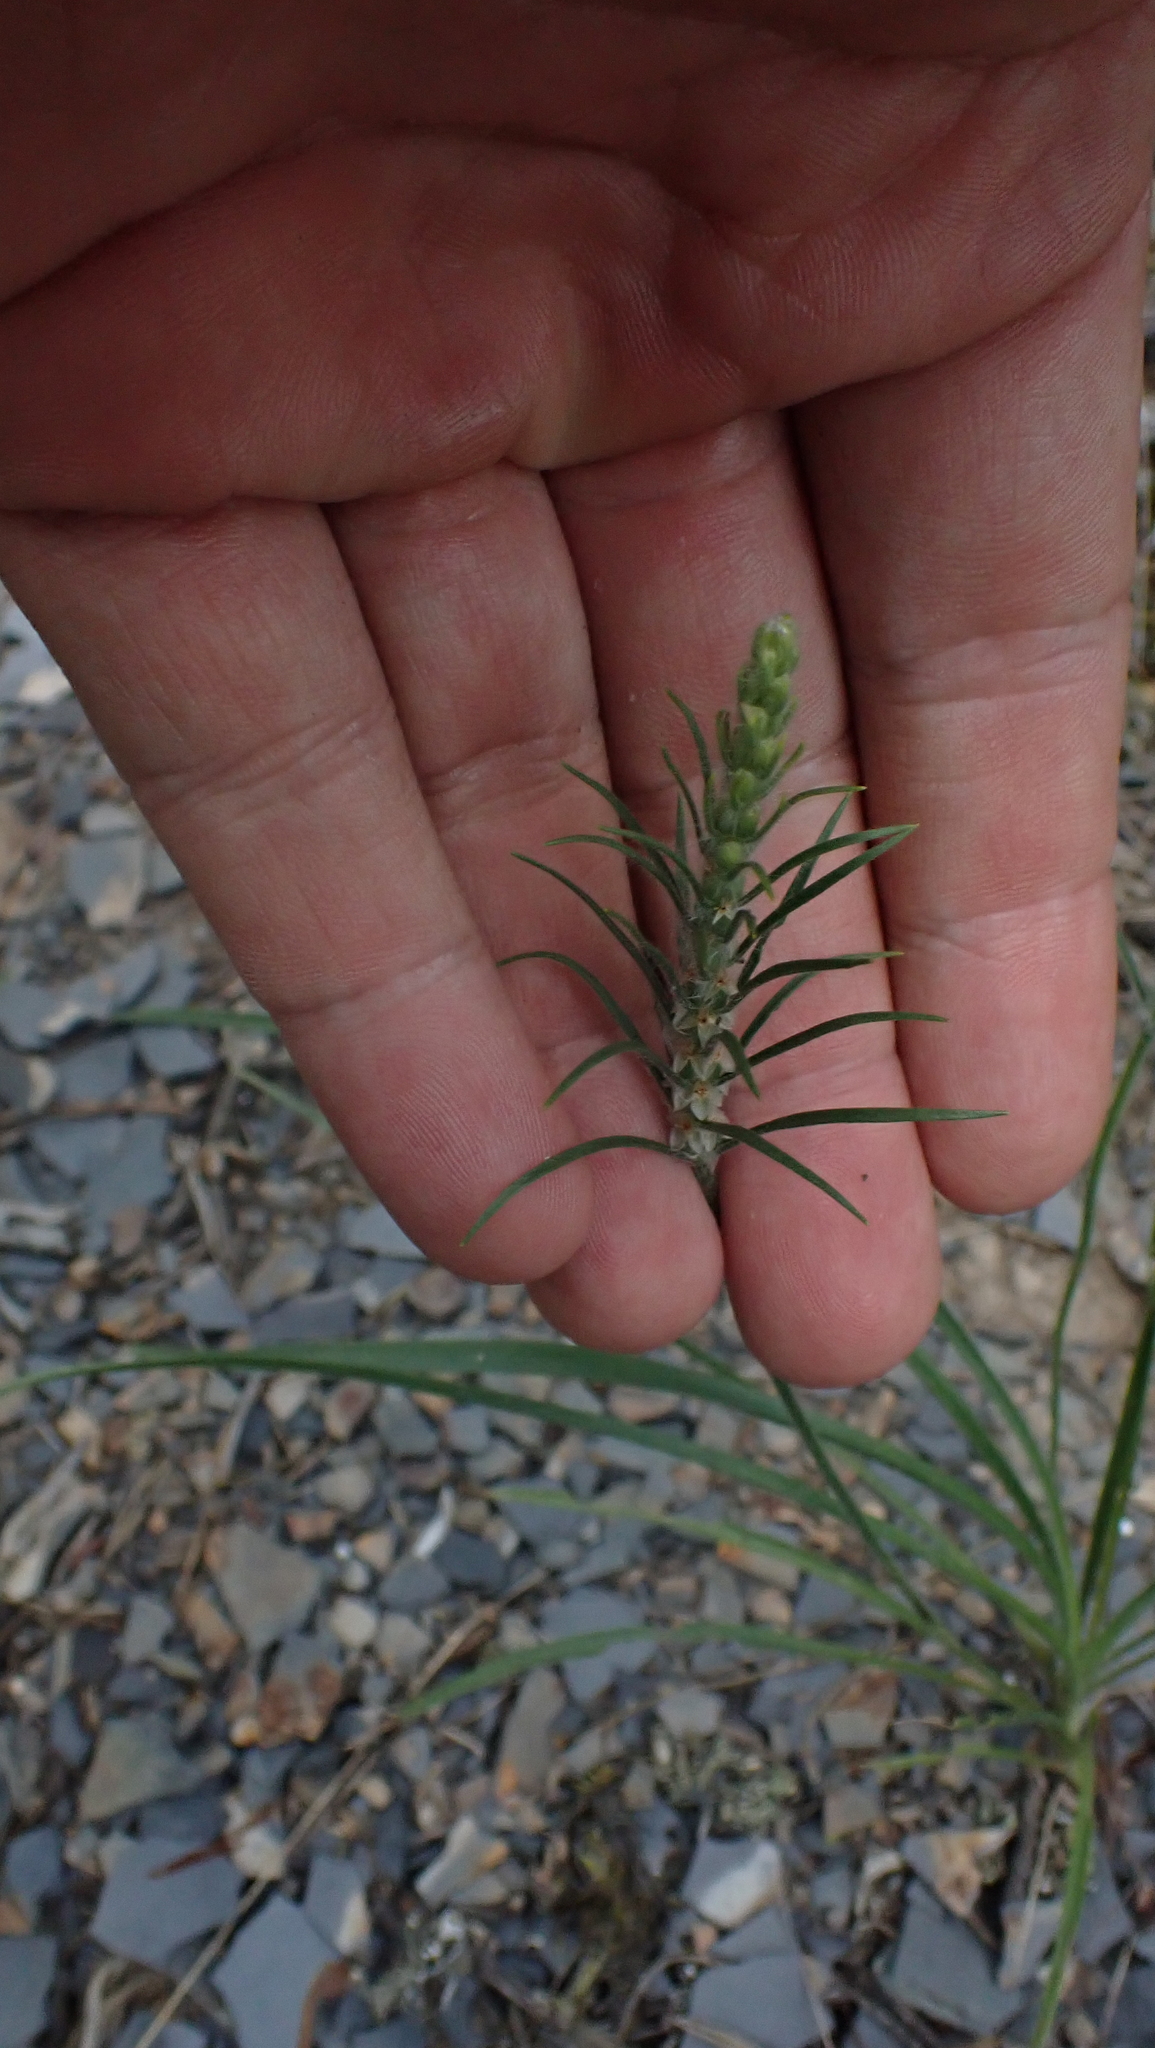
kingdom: Plantae
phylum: Tracheophyta
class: Magnoliopsida
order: Lamiales
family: Plantaginaceae
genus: Plantago
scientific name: Plantago aristata
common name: Bracted plantain
